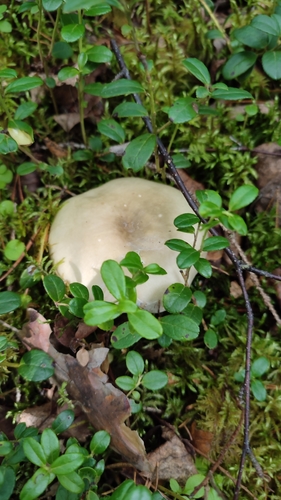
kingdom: Fungi
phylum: Basidiomycota
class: Agaricomycetes
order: Russulales
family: Russulaceae
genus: Russula
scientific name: Russula
